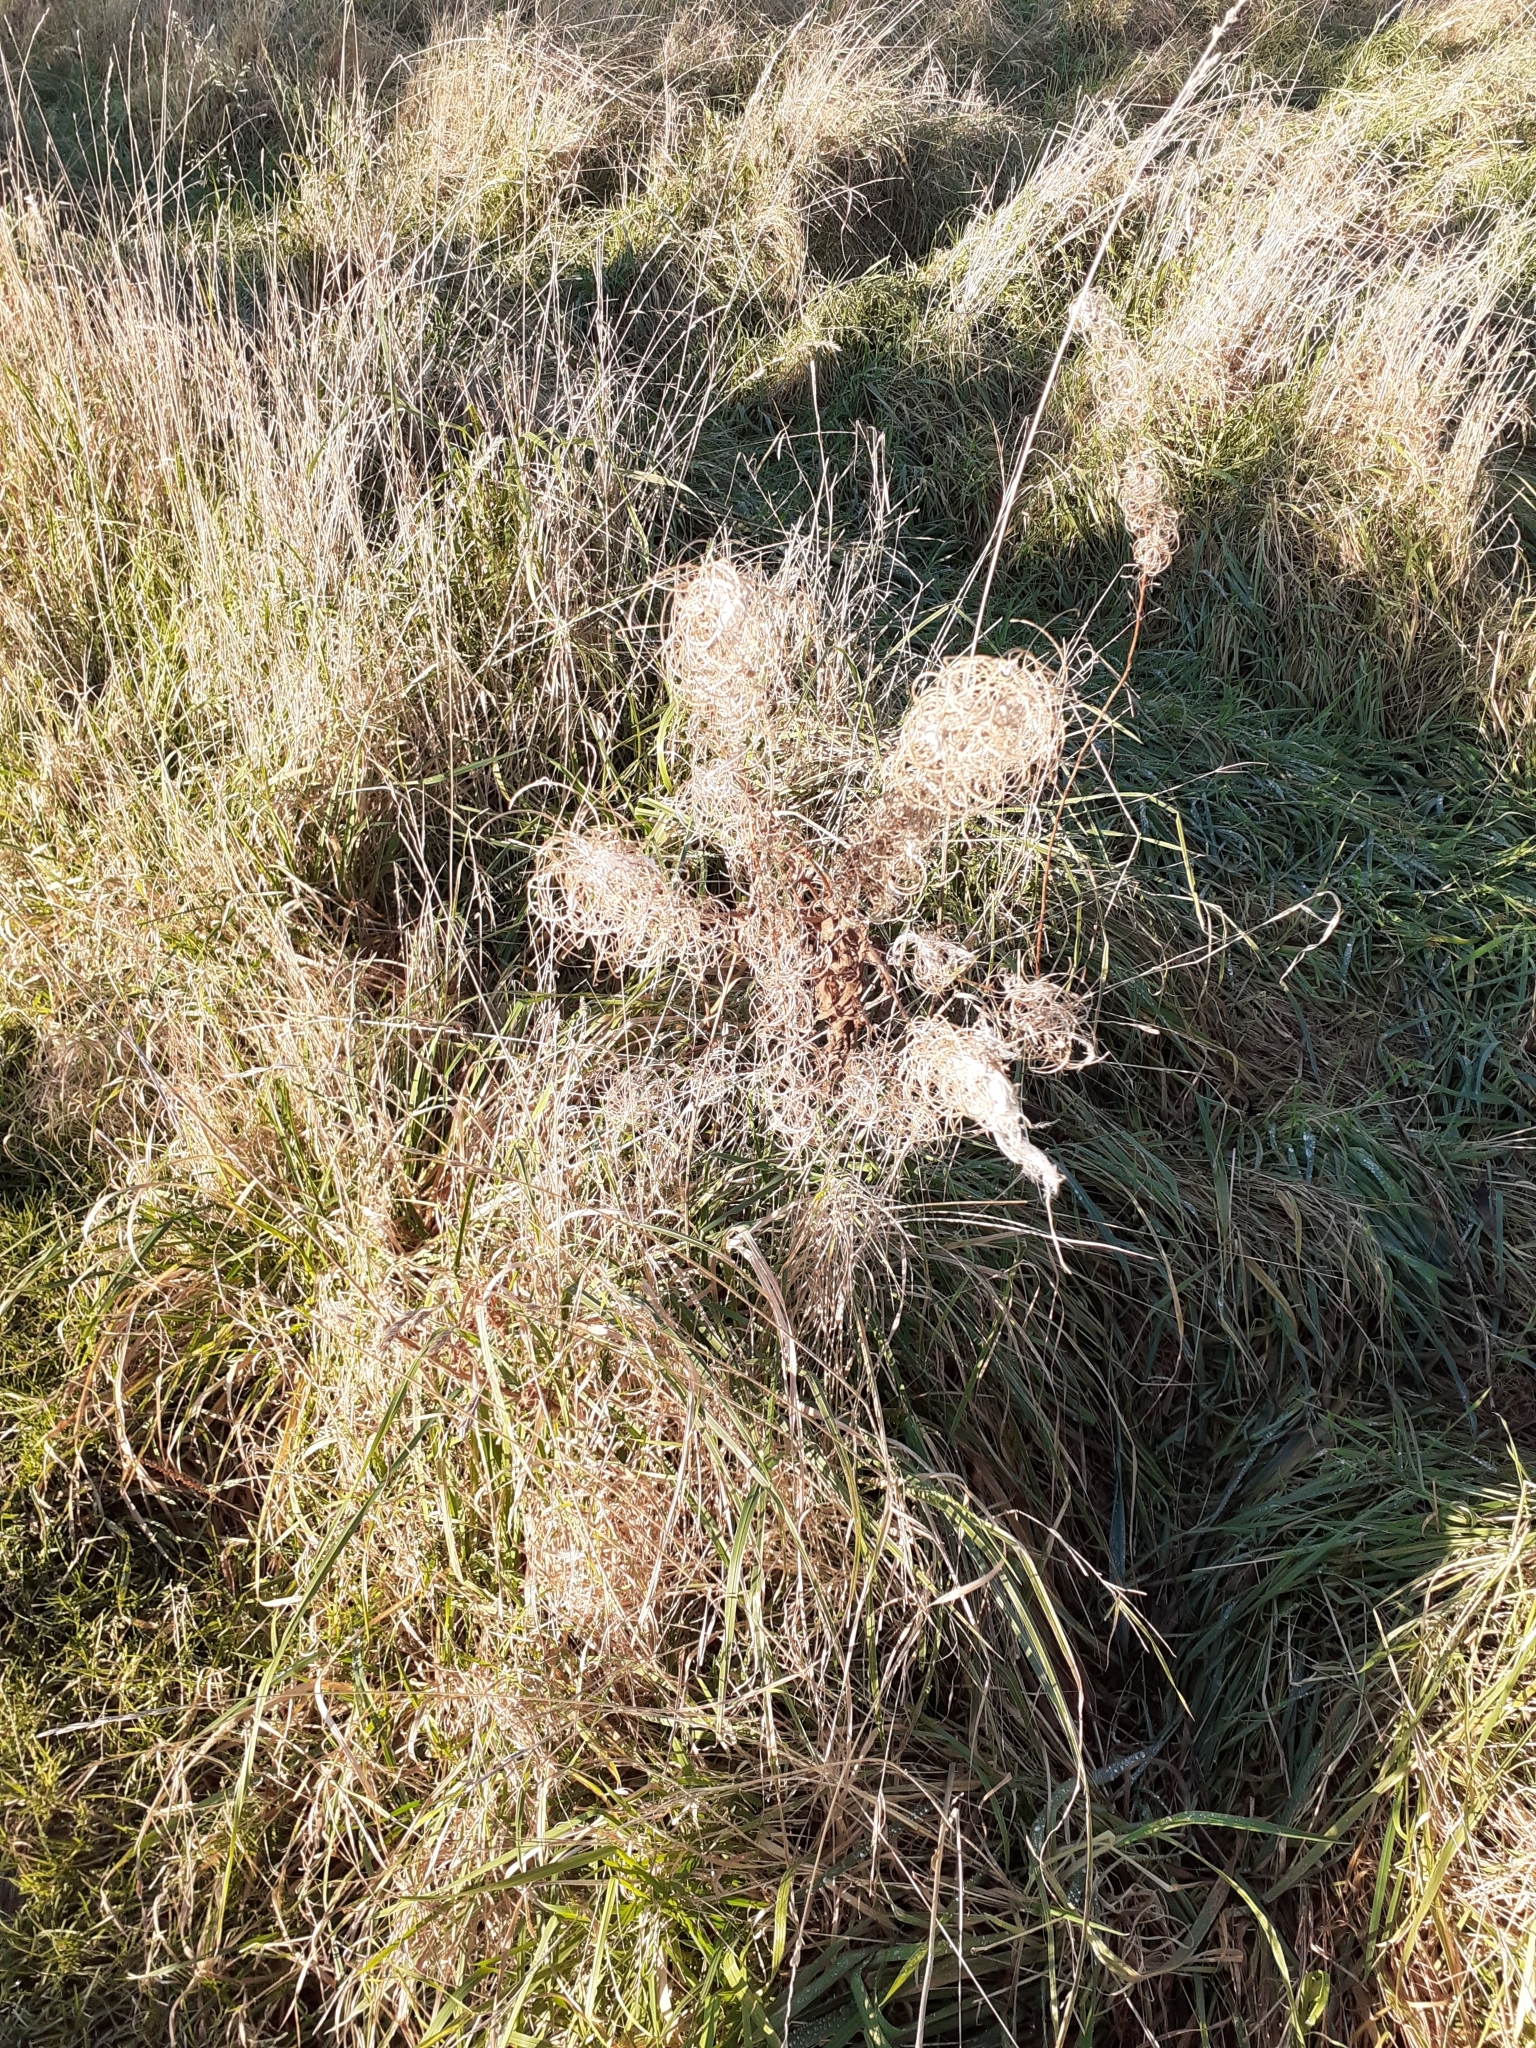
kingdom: Plantae
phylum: Tracheophyta
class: Magnoliopsida
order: Myrtales
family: Onagraceae
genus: Chamaenerion
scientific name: Chamaenerion angustifolium
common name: Fireweed
